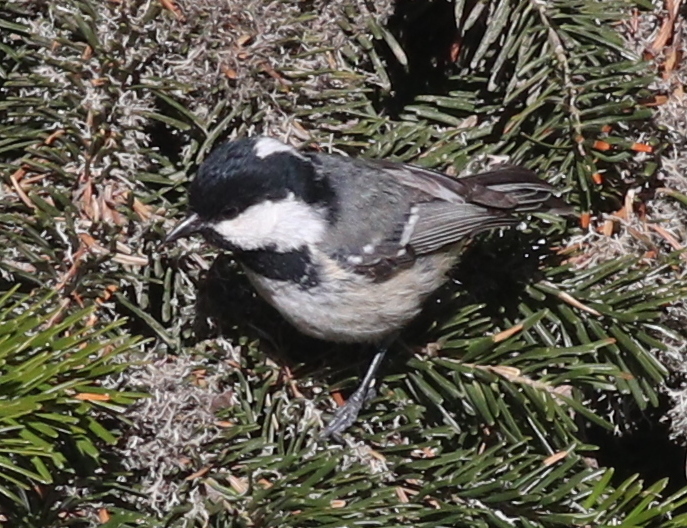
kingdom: Animalia
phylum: Chordata
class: Aves
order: Passeriformes
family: Paridae
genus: Periparus
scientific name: Periparus ater
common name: Coal tit
